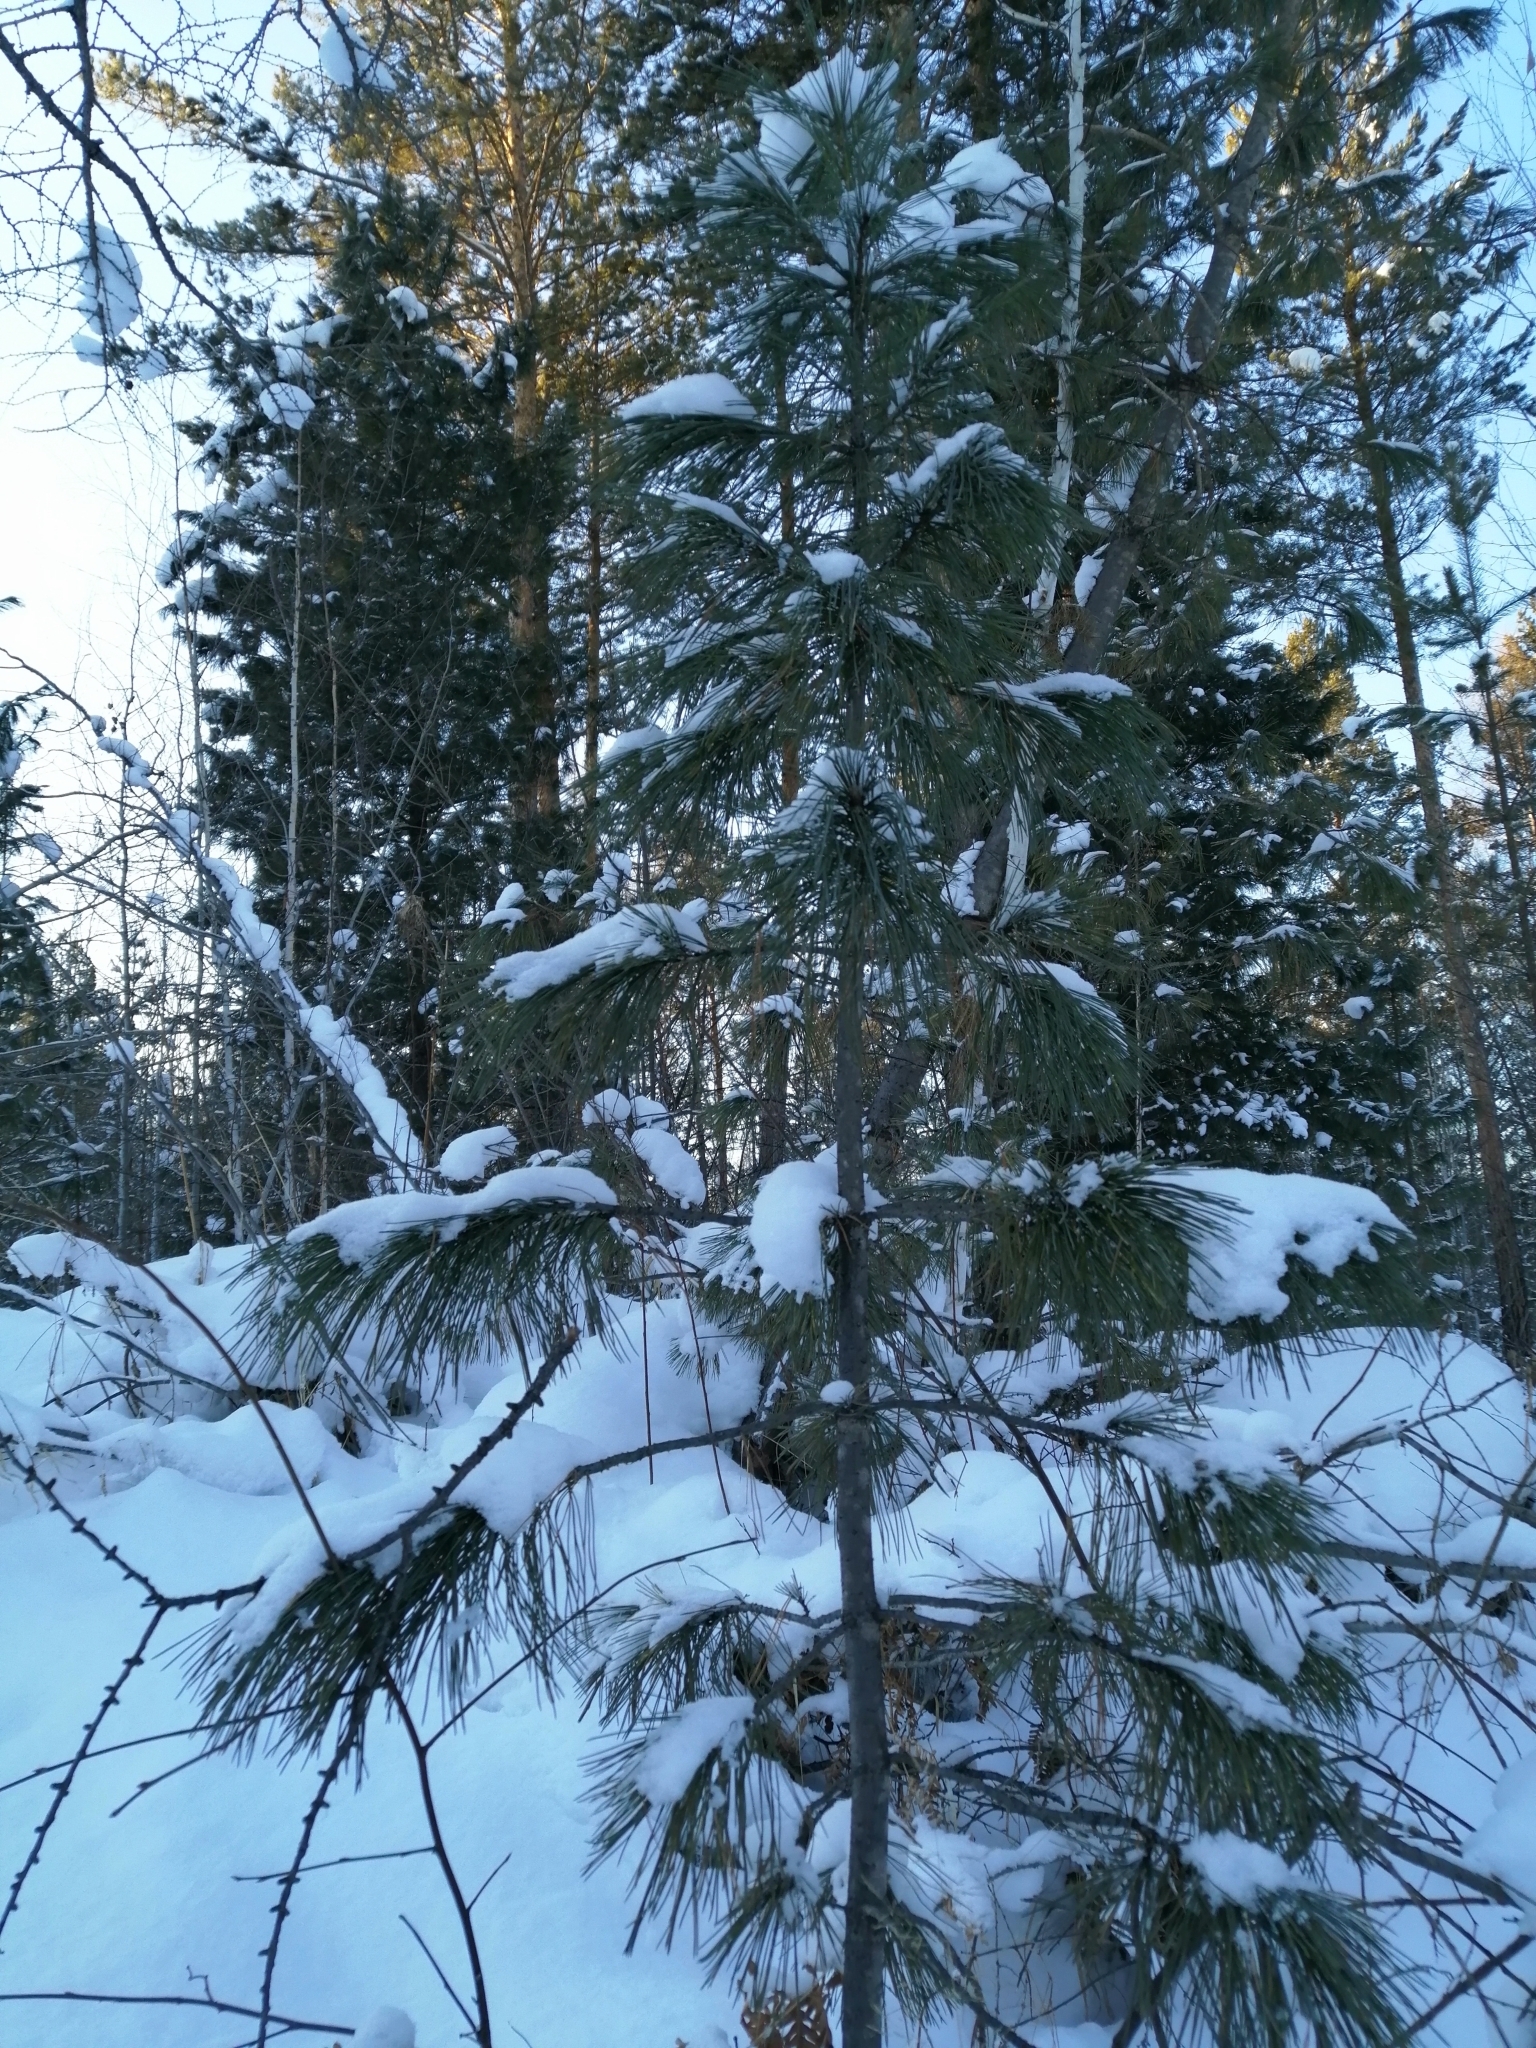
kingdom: Plantae
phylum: Tracheophyta
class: Pinopsida
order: Pinales
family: Pinaceae
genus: Pinus
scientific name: Pinus sibirica
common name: Siberian pine
